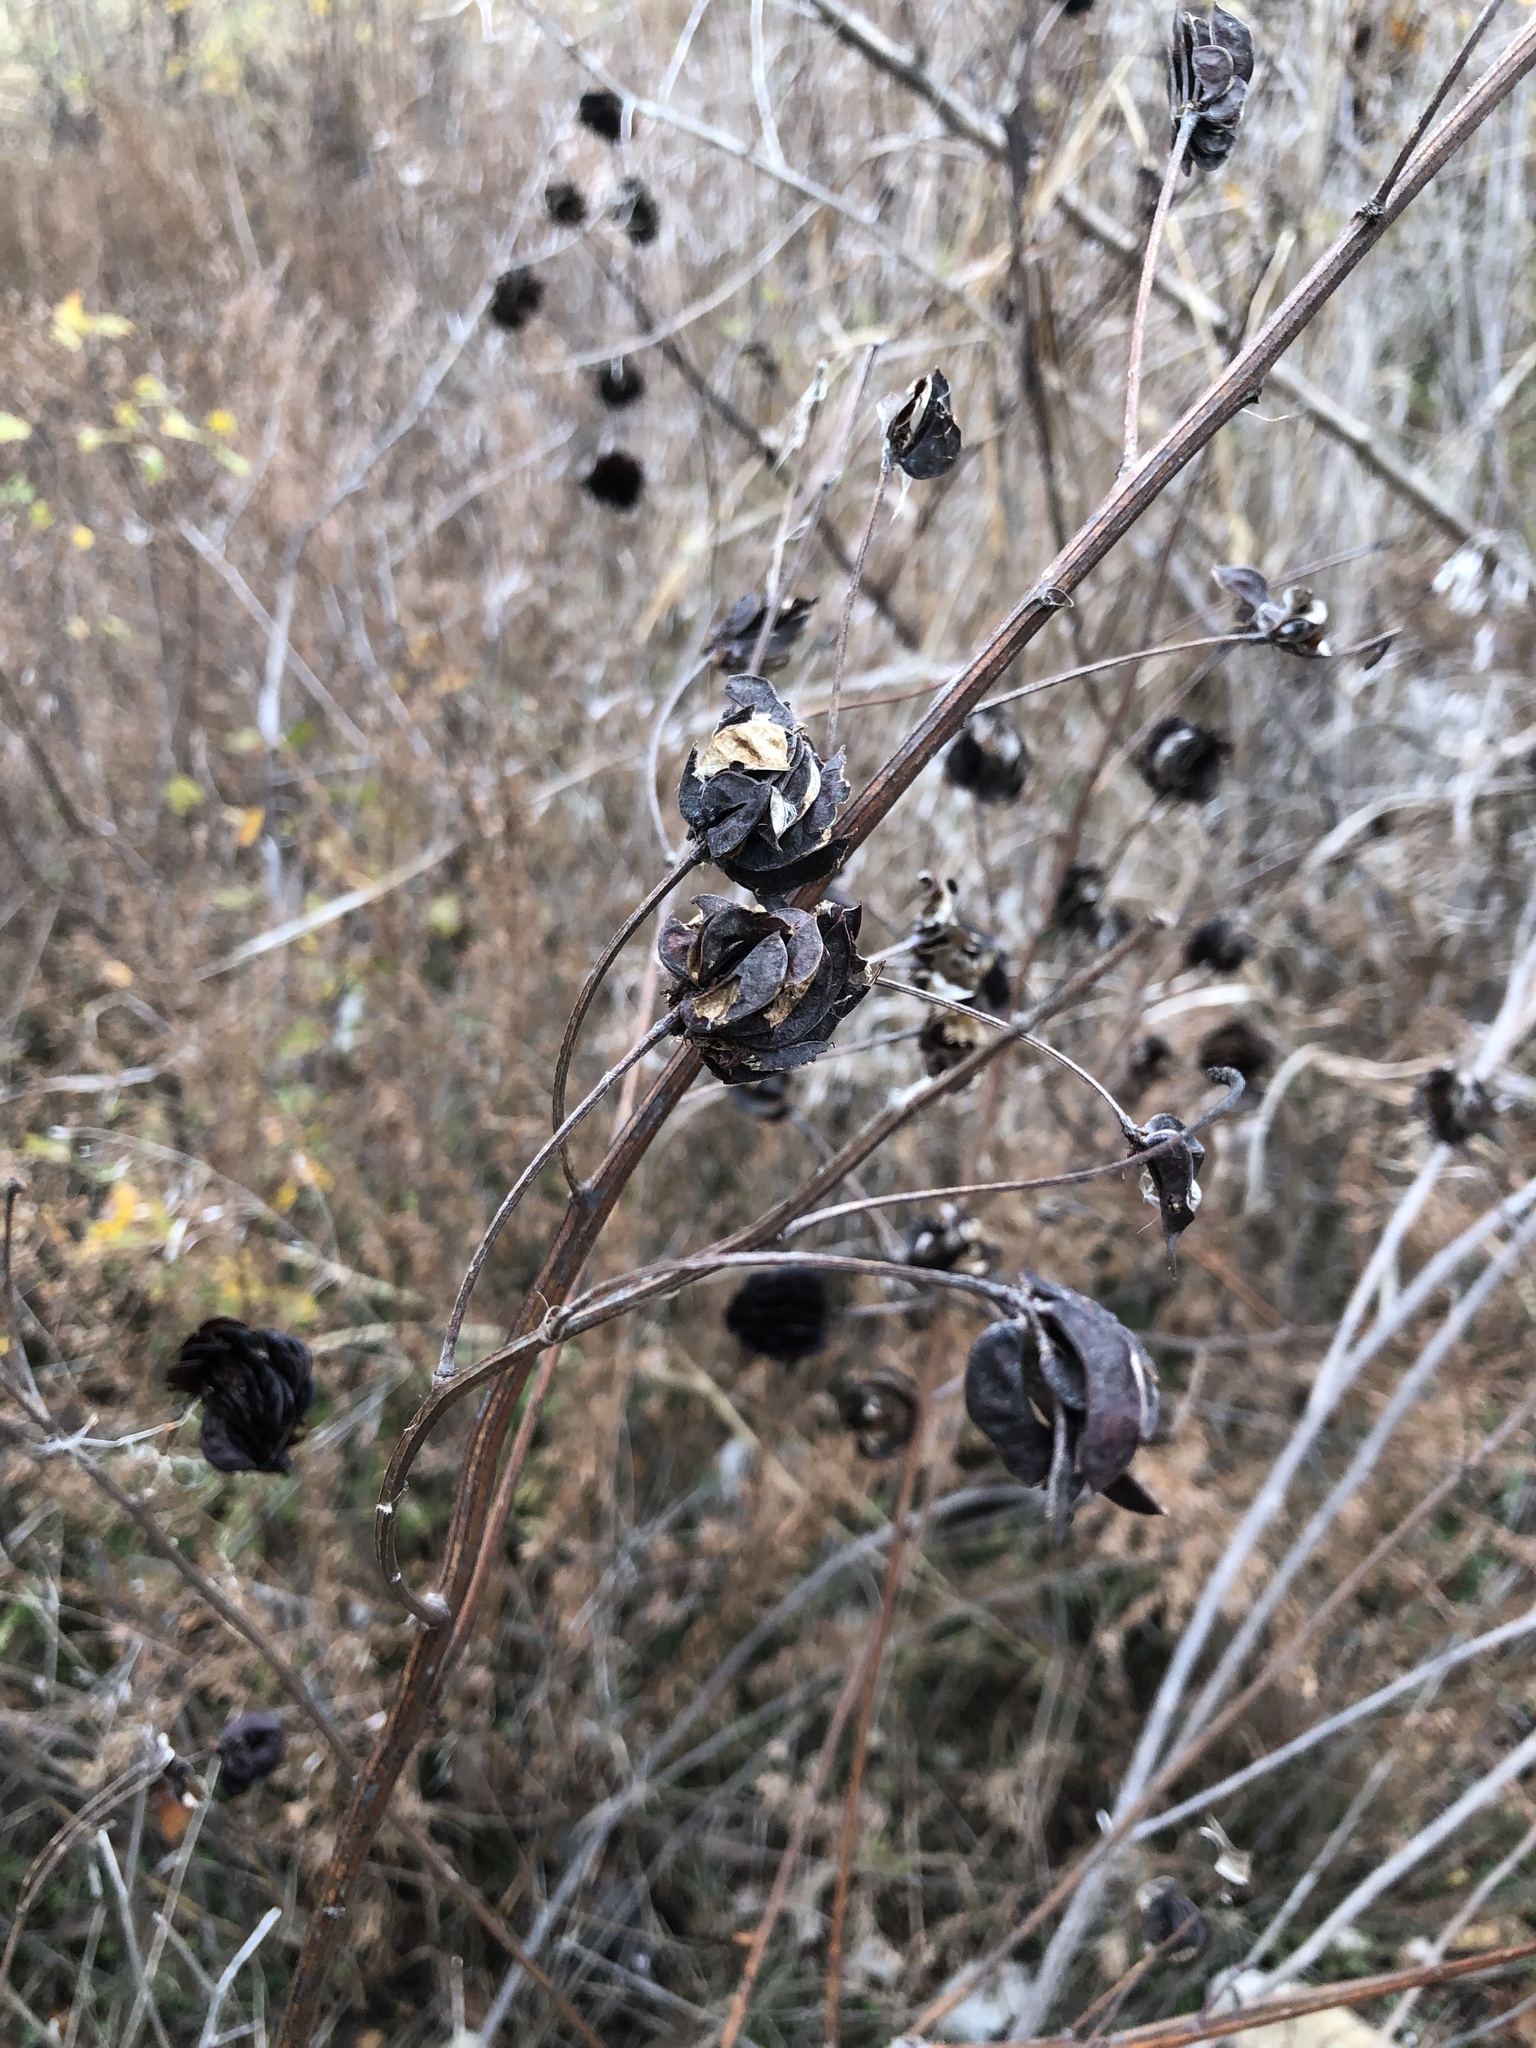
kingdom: Plantae
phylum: Tracheophyta
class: Magnoliopsida
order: Fabales
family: Fabaceae
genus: Desmanthus
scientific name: Desmanthus illinoensis
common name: Illinois bundle-flower
